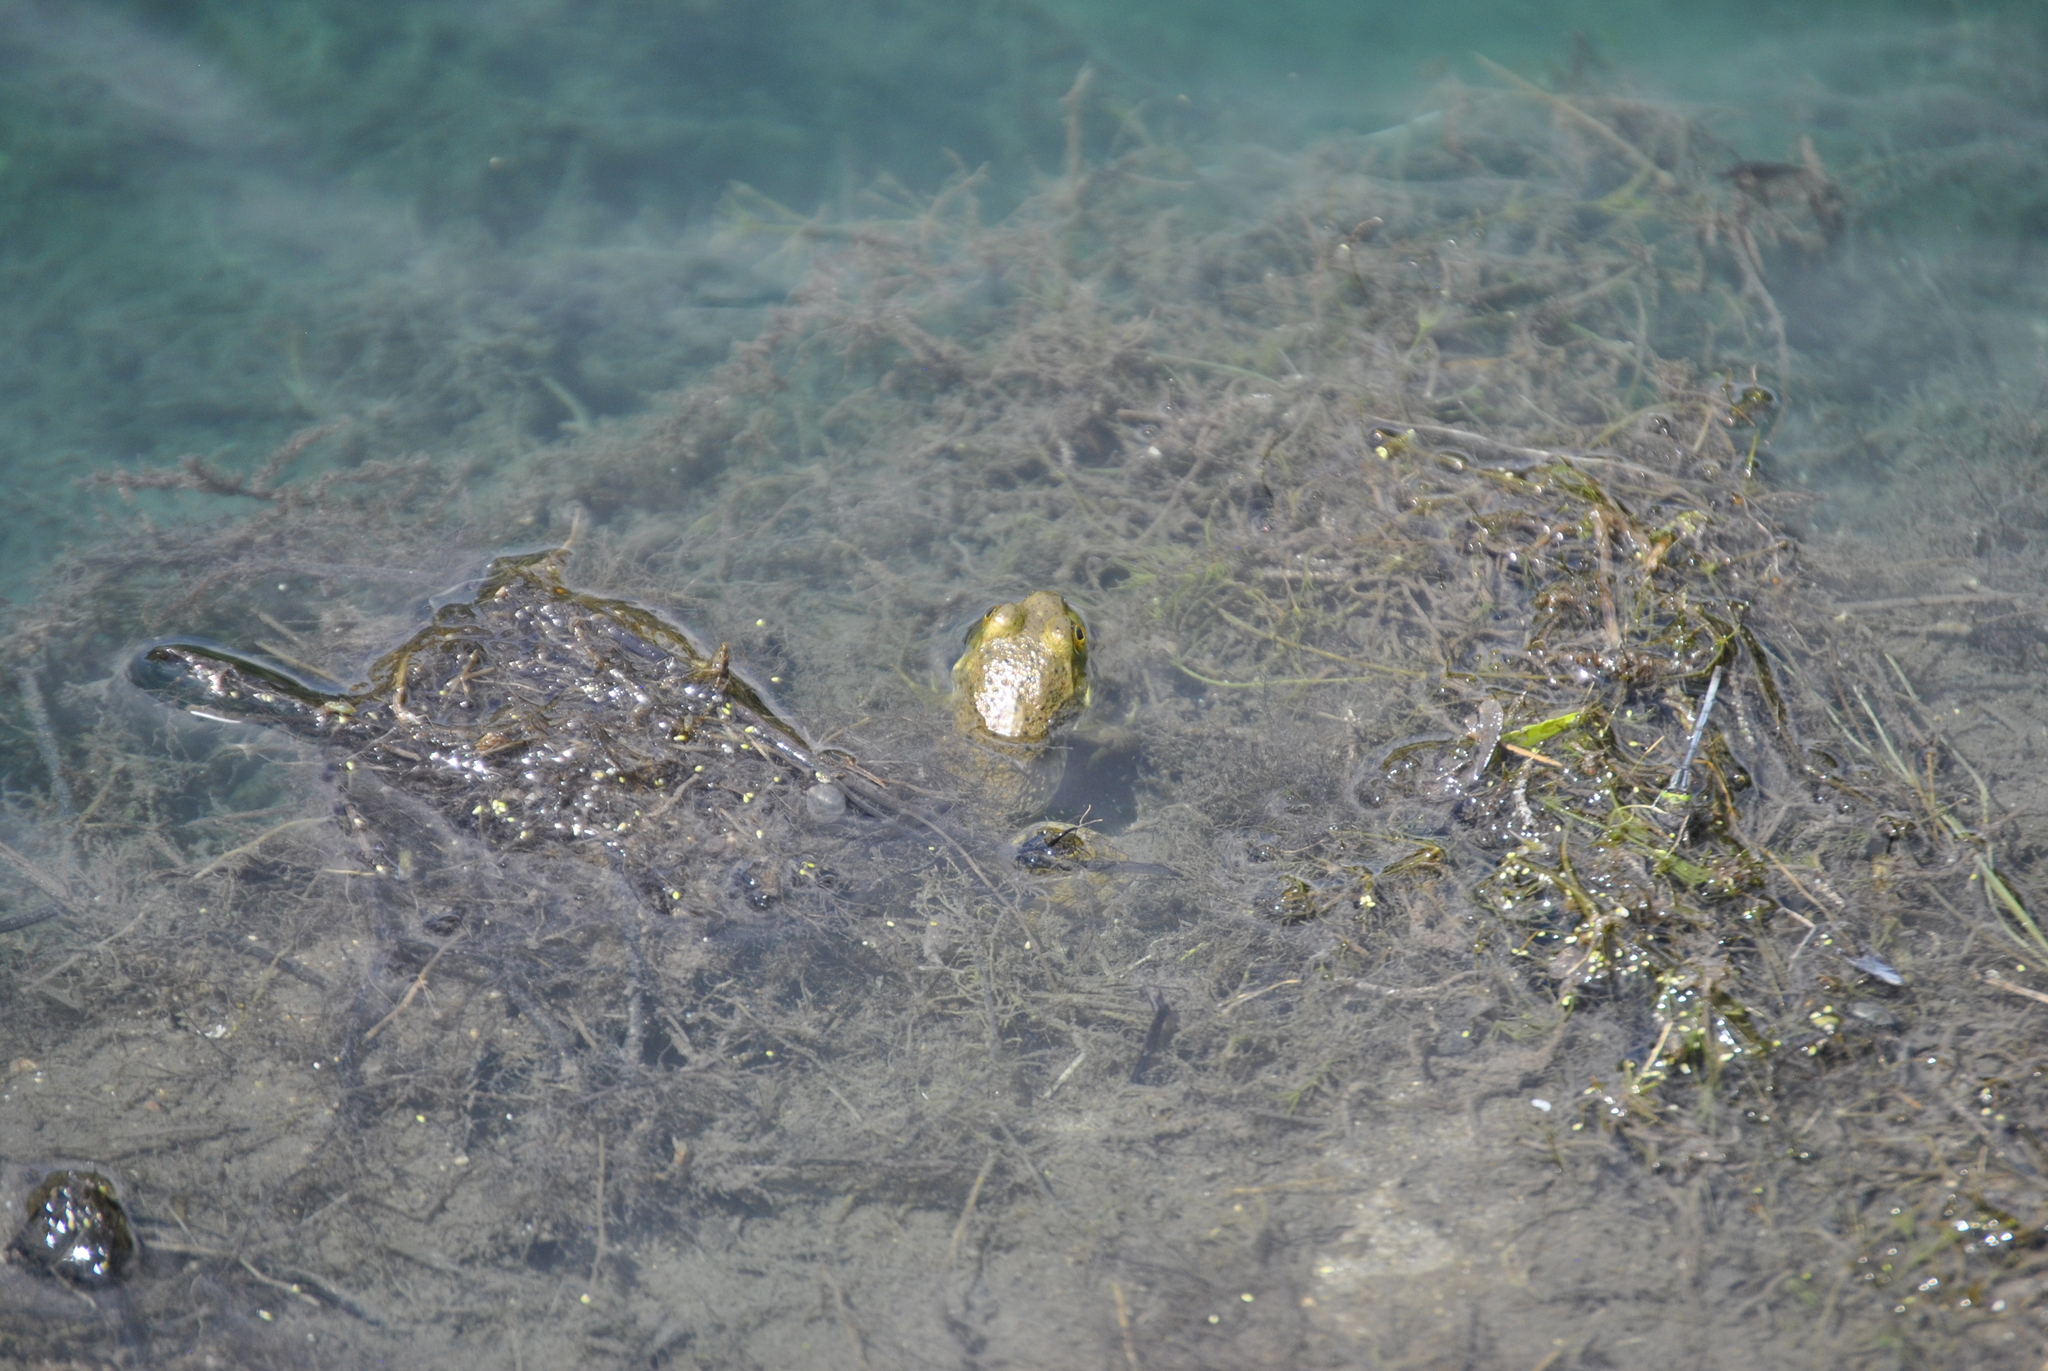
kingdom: Animalia
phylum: Chordata
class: Amphibia
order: Anura
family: Ranidae
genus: Lithobates
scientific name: Lithobates catesbeianus
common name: American bullfrog
